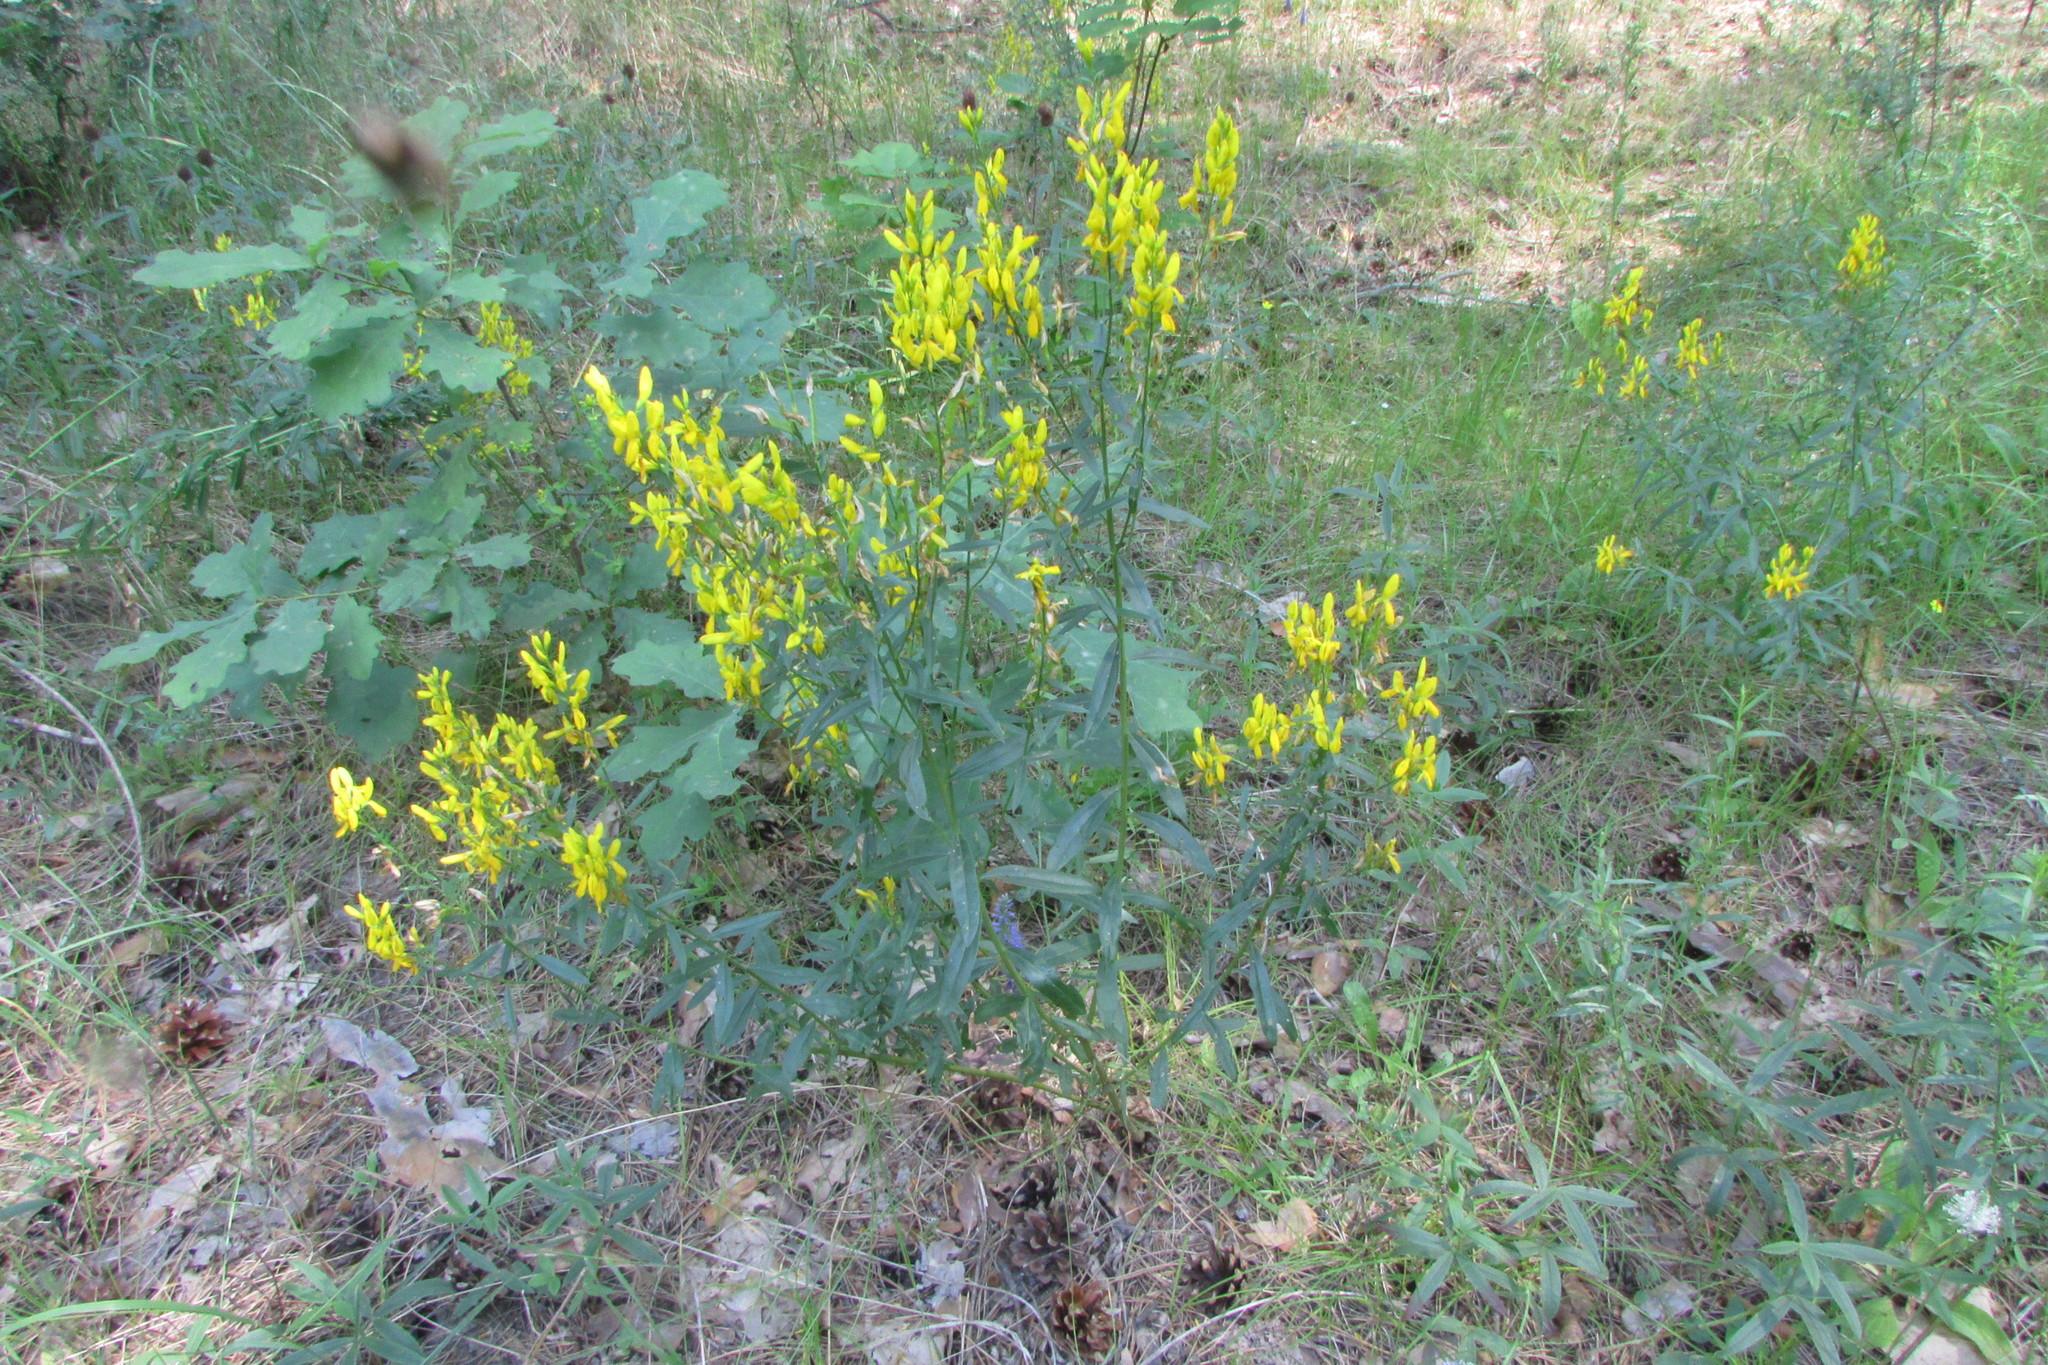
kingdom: Plantae
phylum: Tracheophyta
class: Magnoliopsida
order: Fabales
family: Fabaceae
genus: Genista
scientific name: Genista tinctoria
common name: Dyer's greenweed
